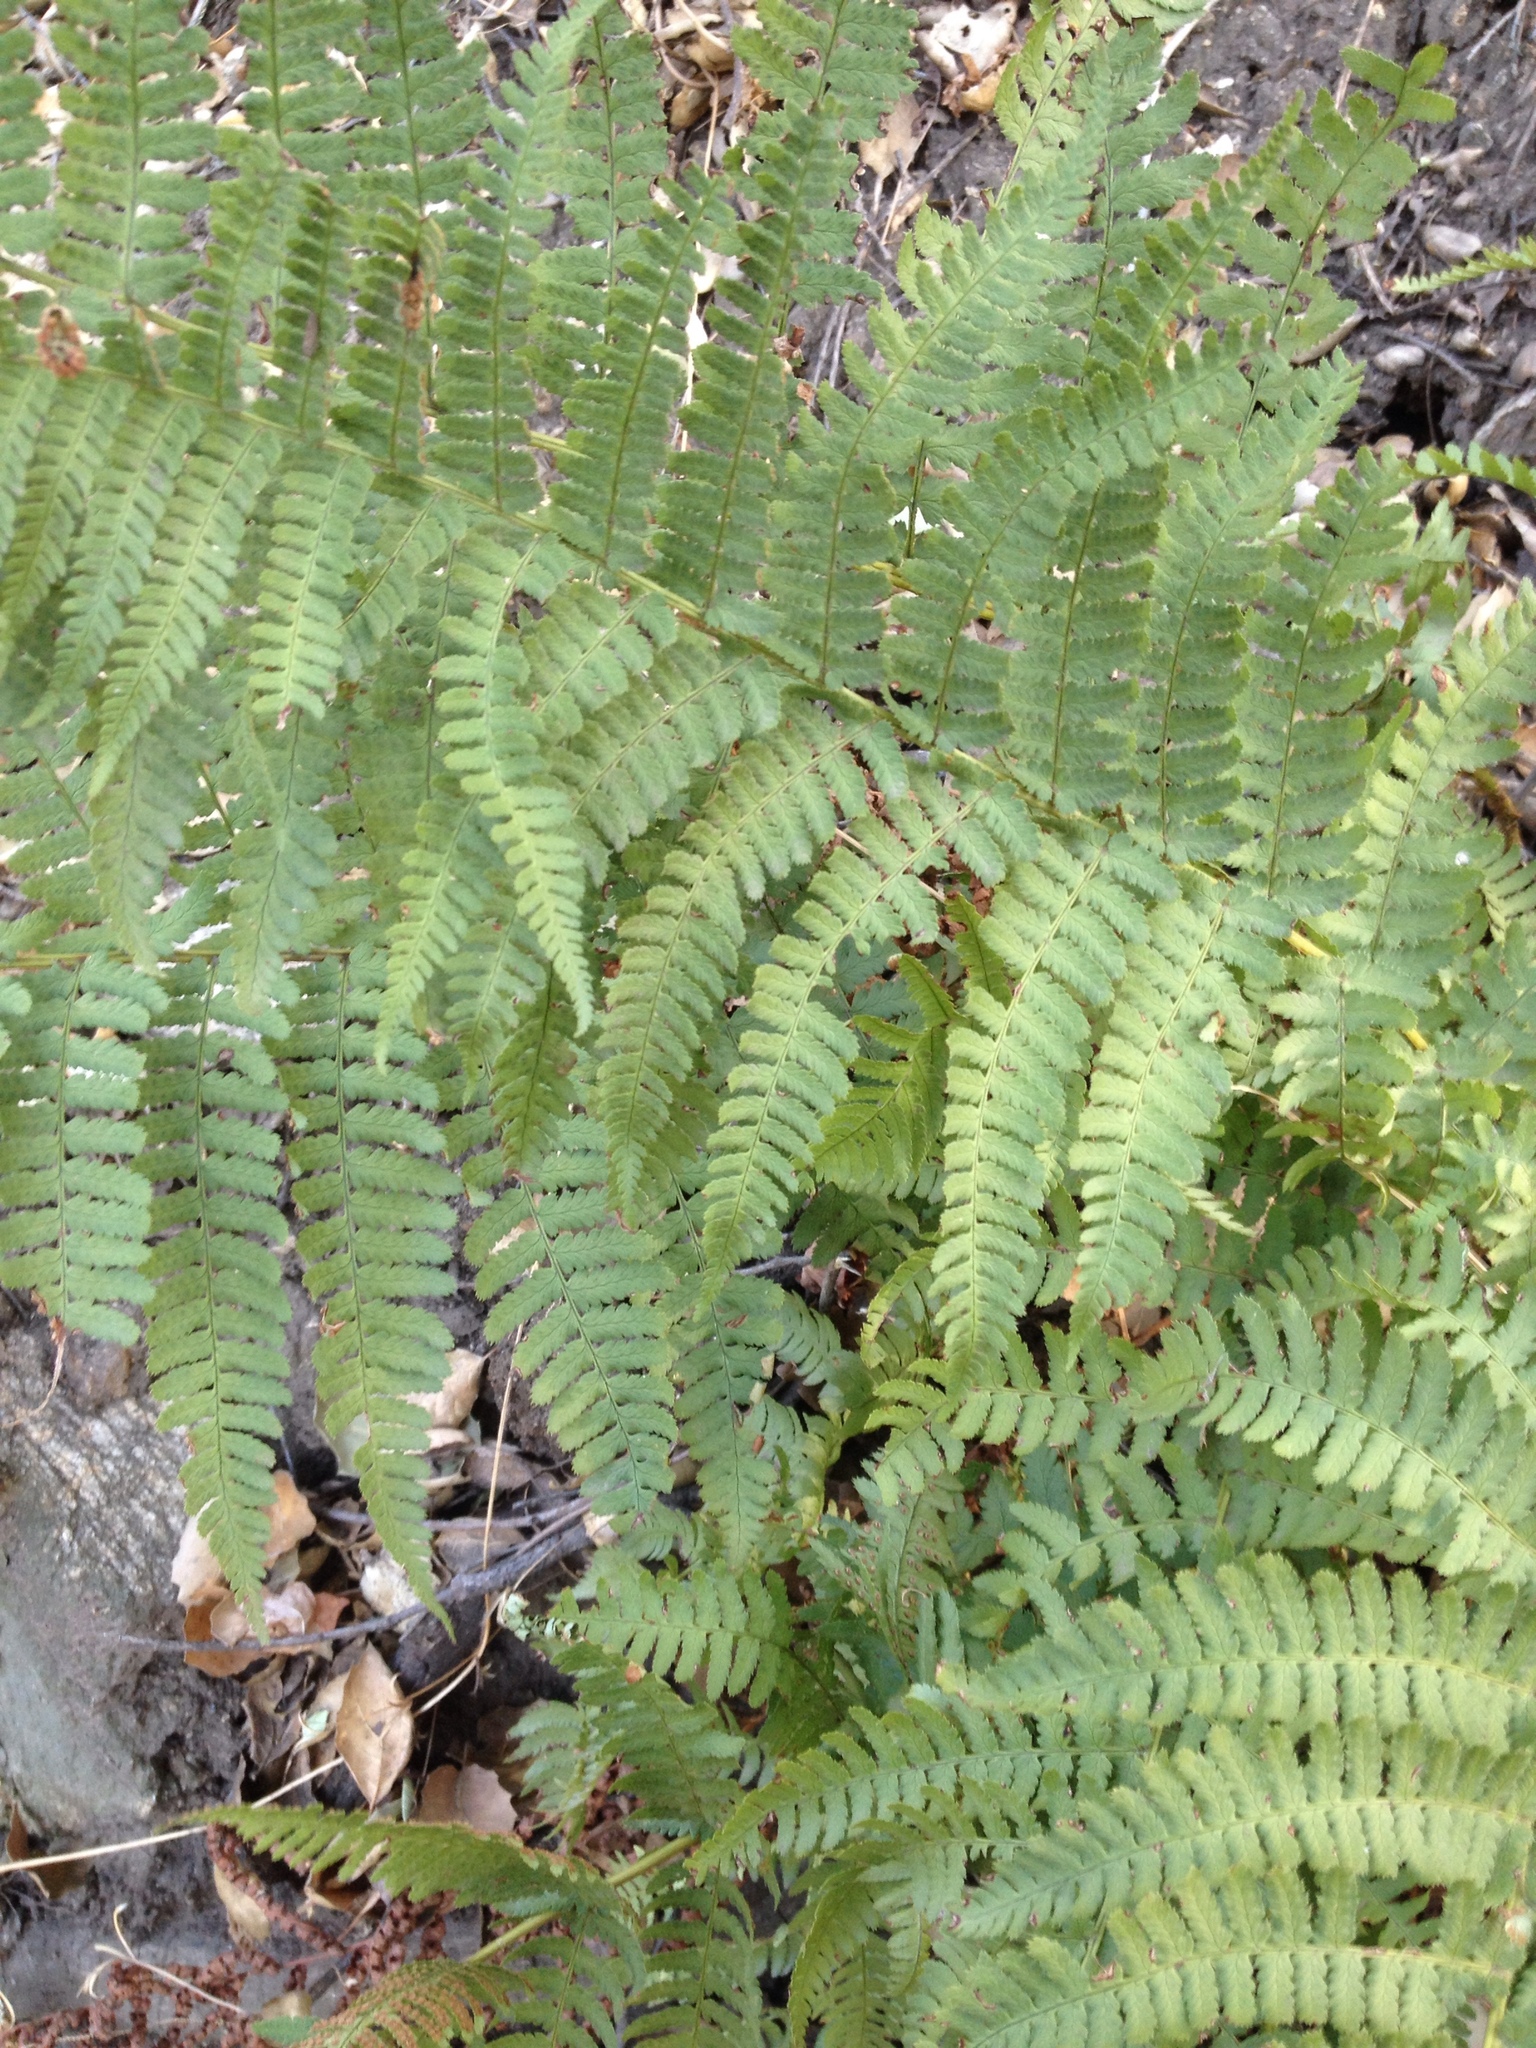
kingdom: Plantae
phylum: Tracheophyta
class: Polypodiopsida
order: Polypodiales
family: Dryopteridaceae
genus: Dryopteris
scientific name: Dryopteris arguta
